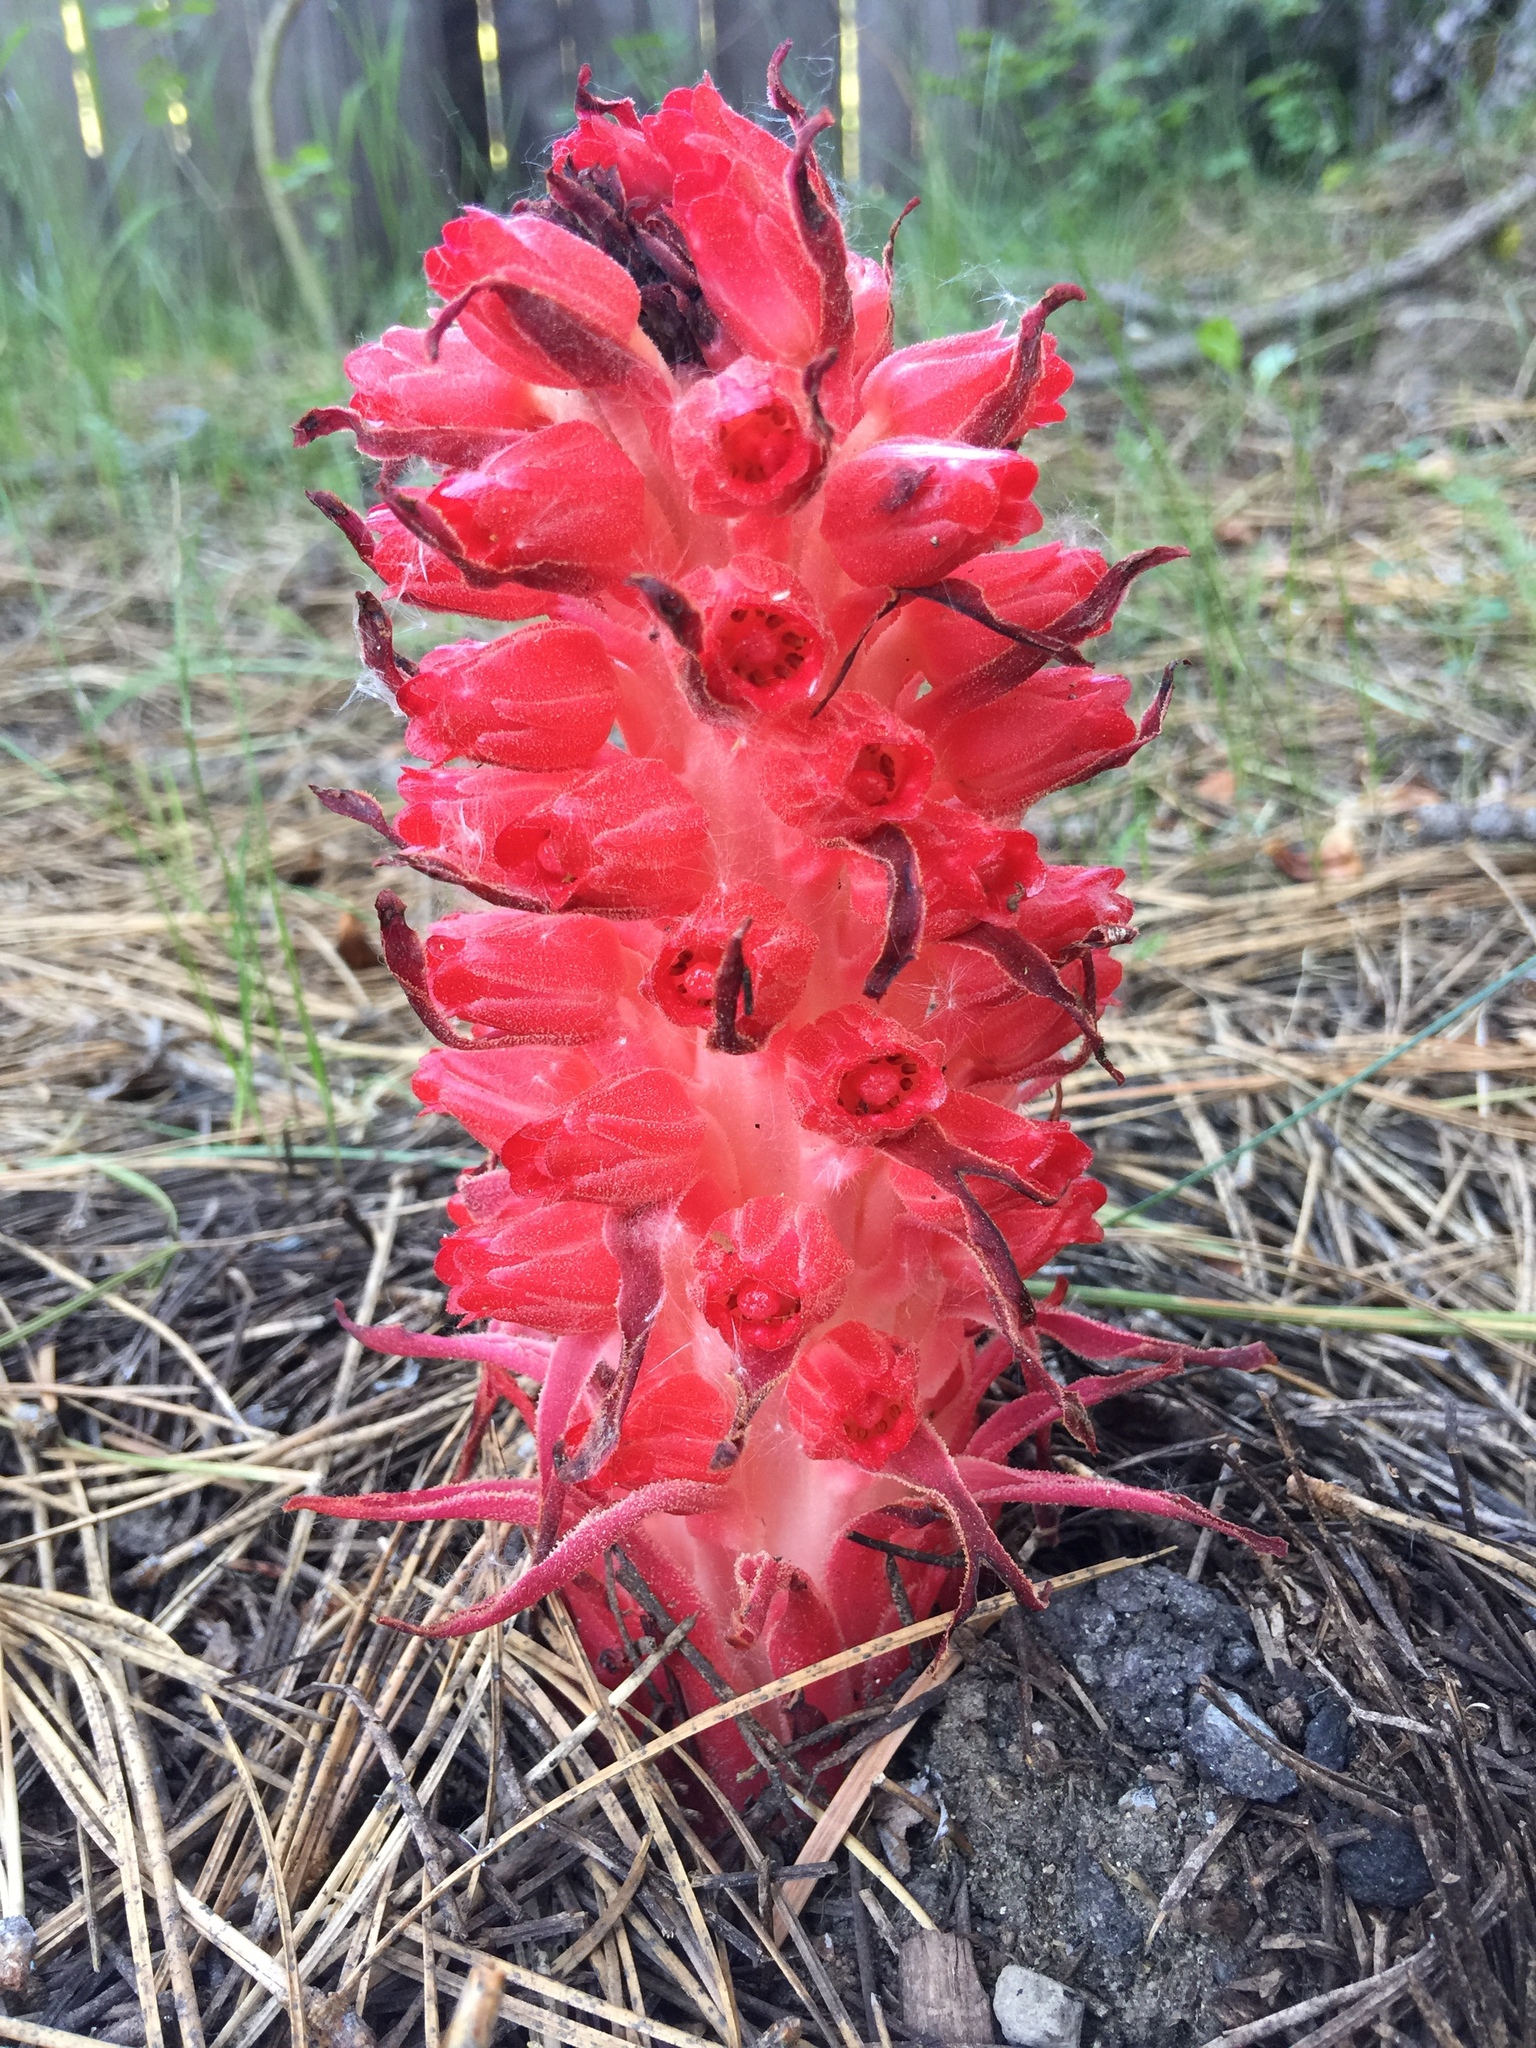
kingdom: Plantae
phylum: Tracheophyta
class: Magnoliopsida
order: Ericales
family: Ericaceae
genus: Sarcodes
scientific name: Sarcodes sanguinea
